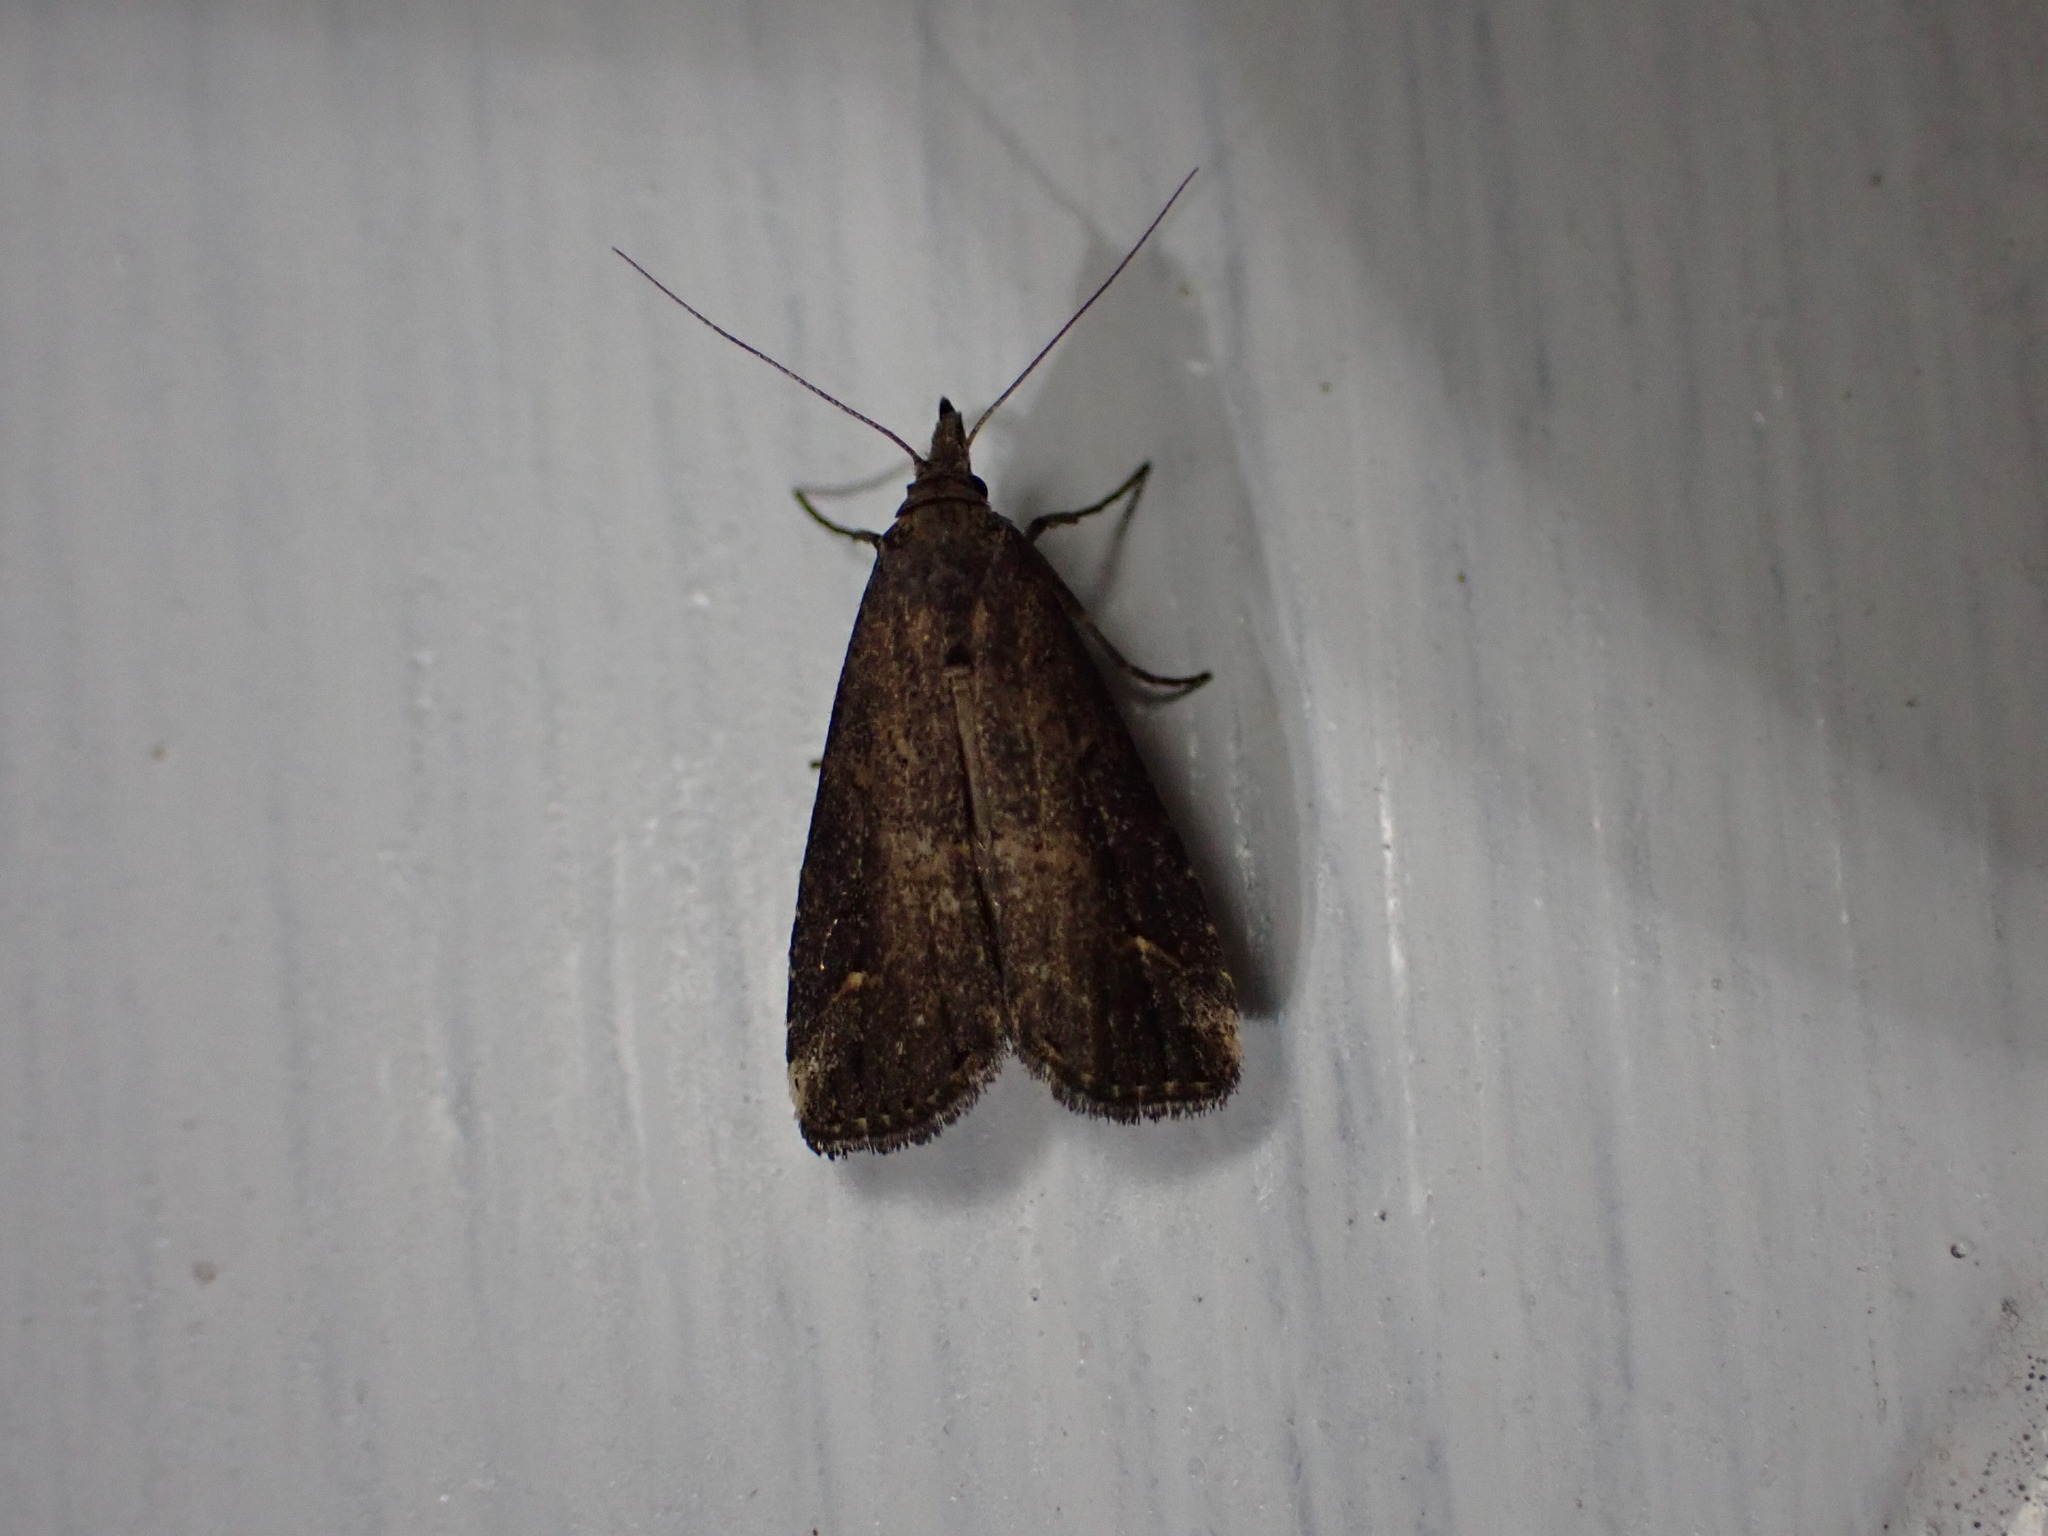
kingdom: Animalia
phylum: Arthropoda
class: Insecta
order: Lepidoptera
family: Erebidae
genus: Schrankia
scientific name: Schrankia costaestrigalis
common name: Pinion-streaked snout
